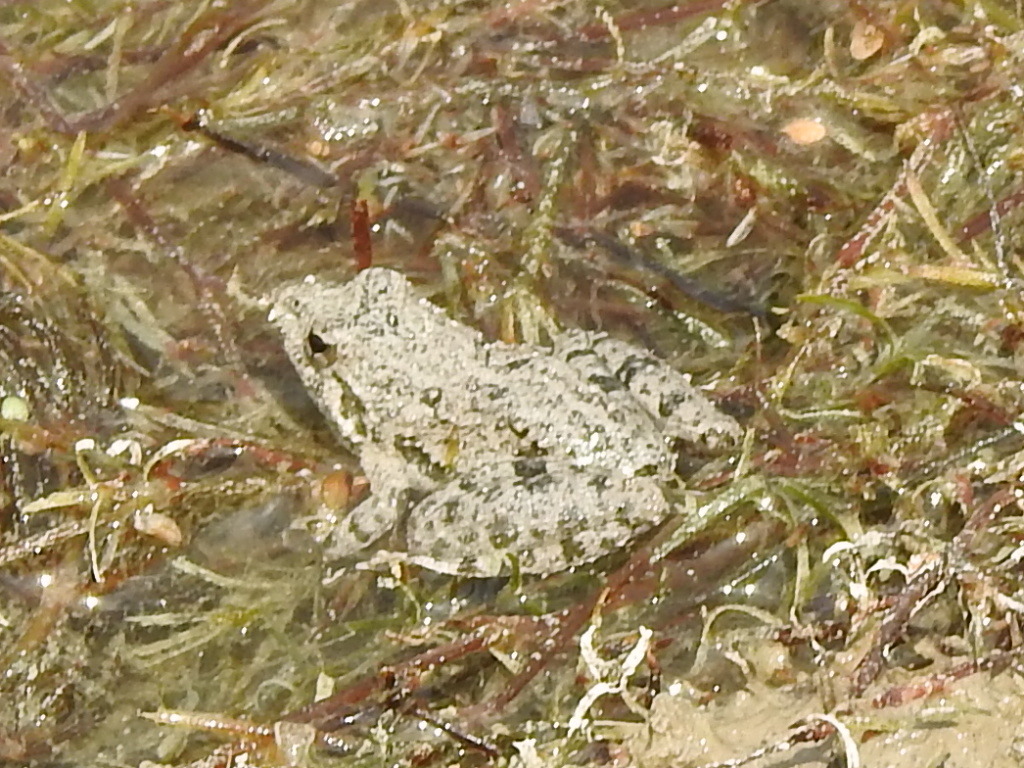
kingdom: Animalia
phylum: Chordata
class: Amphibia
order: Anura
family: Hylidae
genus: Acris
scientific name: Acris blanchardi
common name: Blanchard's cricket frog
